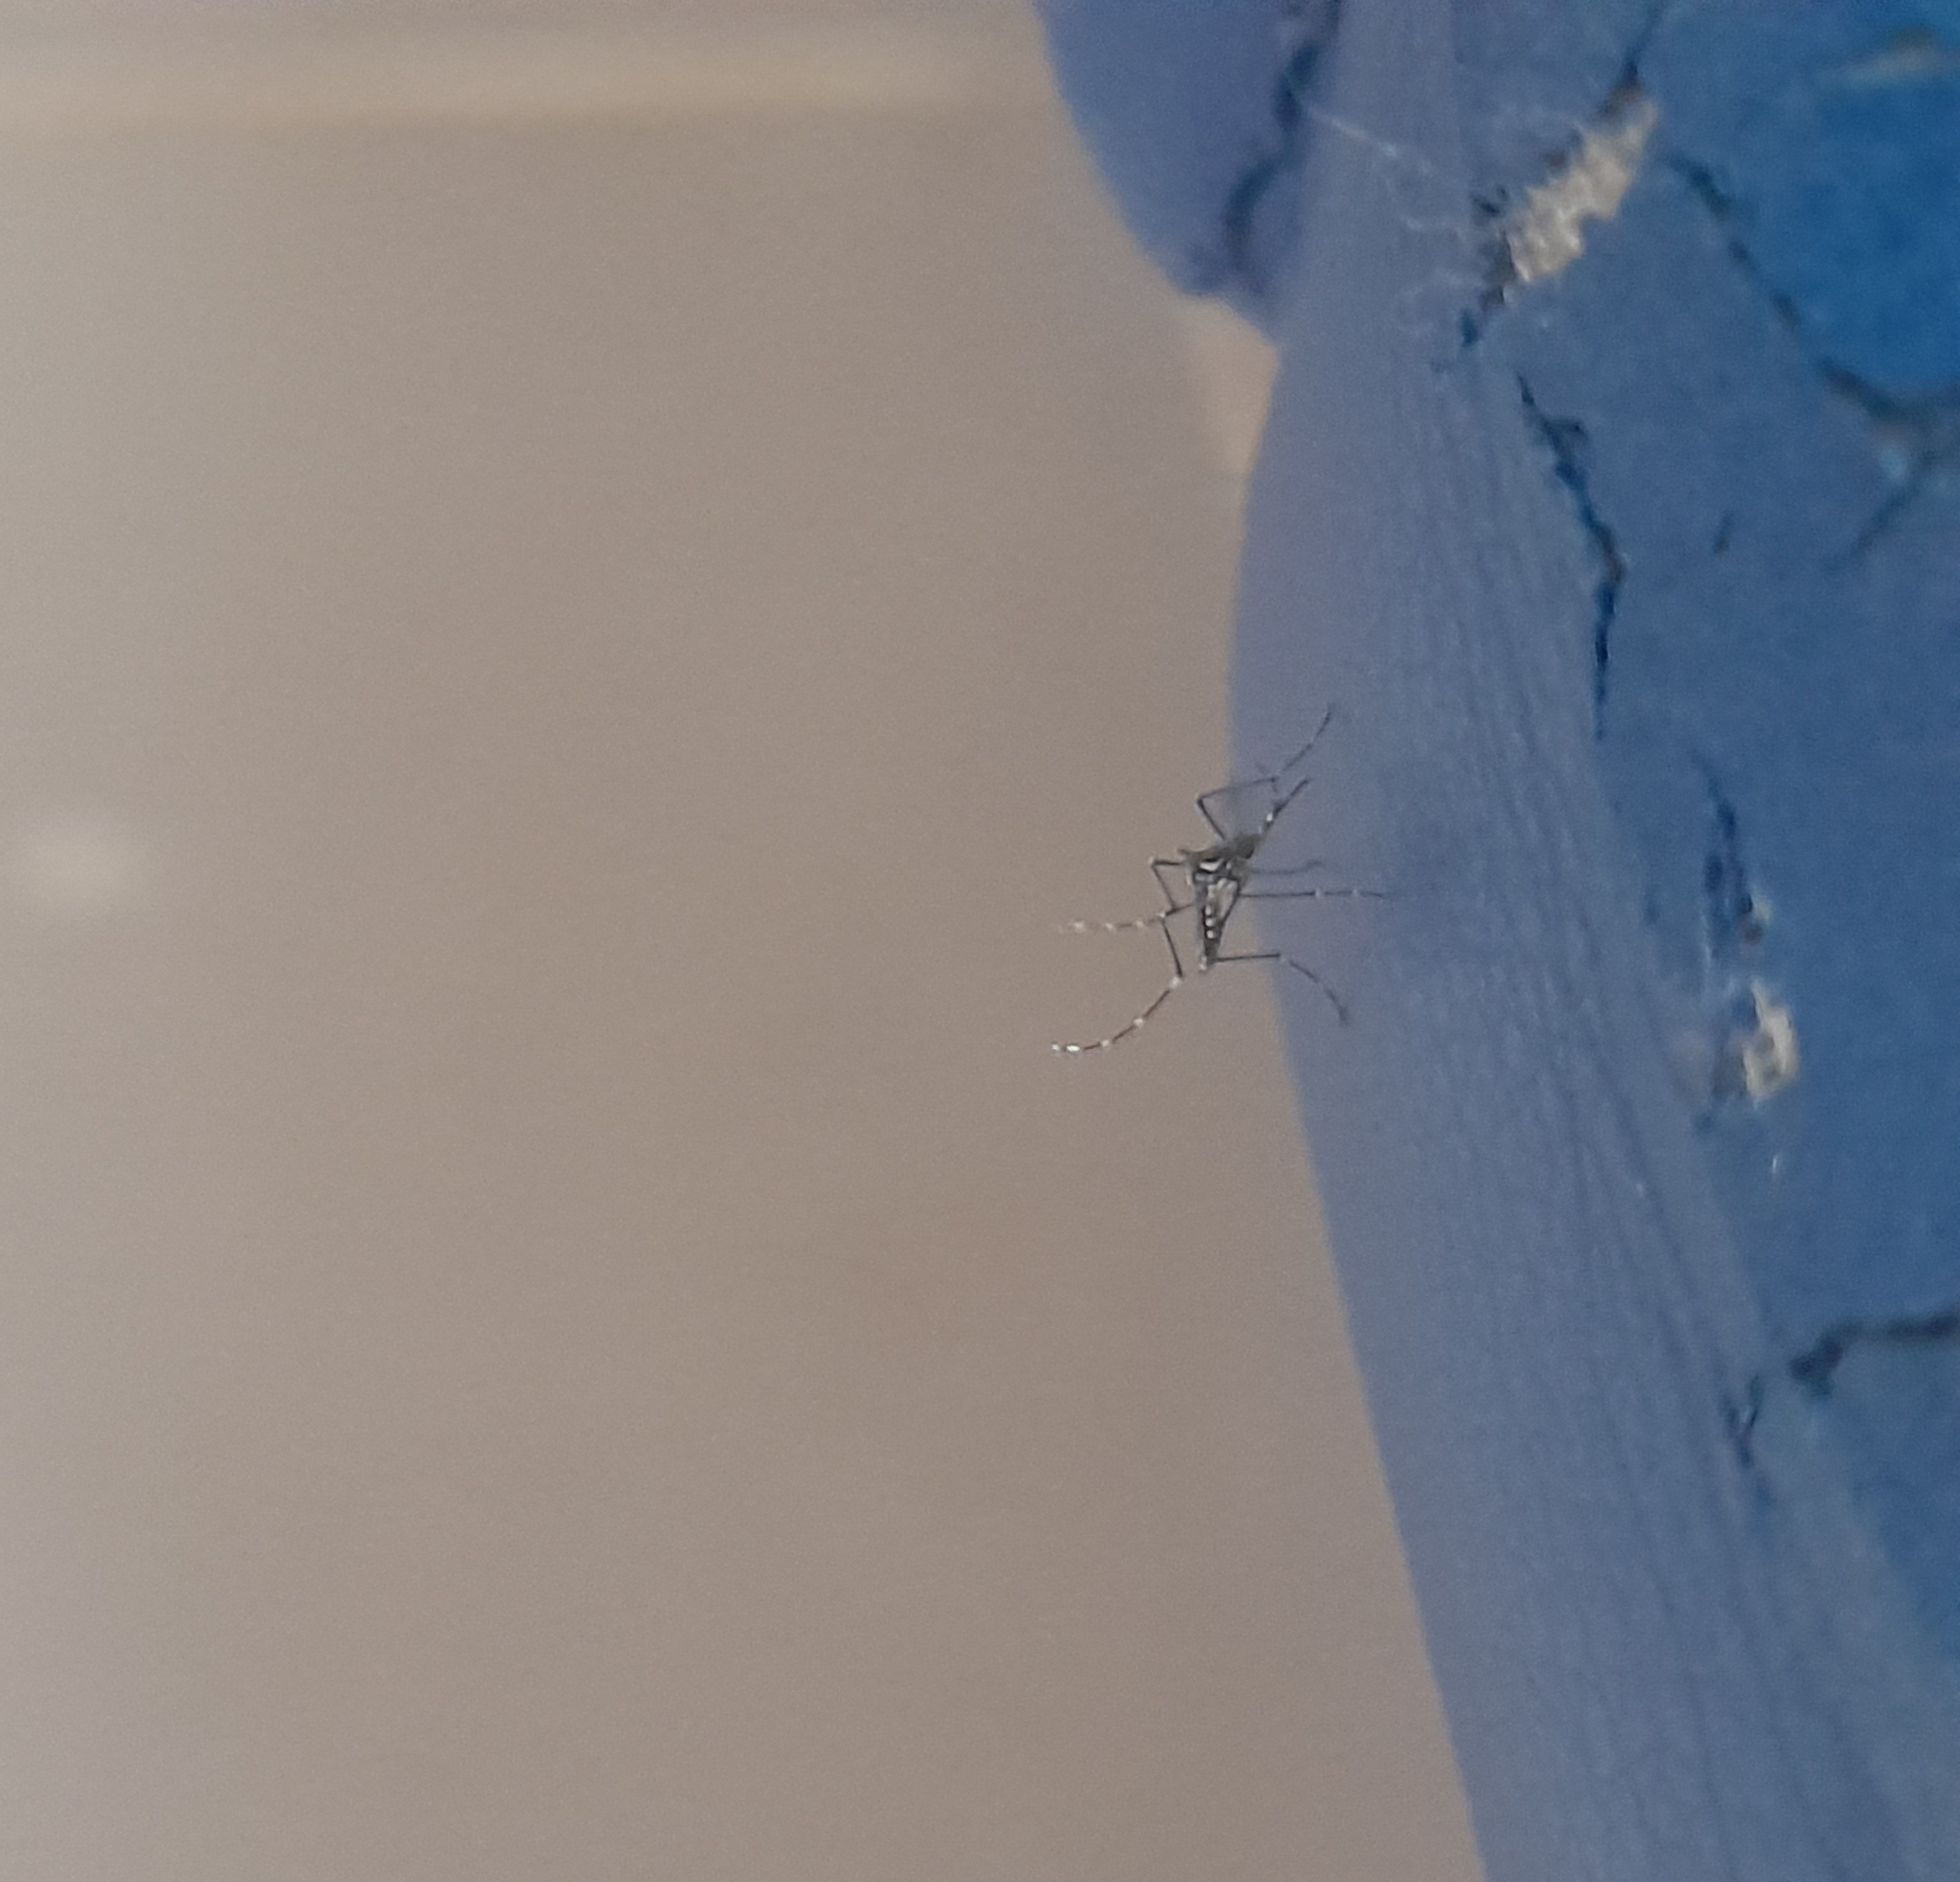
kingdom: Animalia
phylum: Arthropoda
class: Insecta
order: Diptera
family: Culicidae
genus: Aedes
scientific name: Aedes aegypti
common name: Yellow fever mosquito
